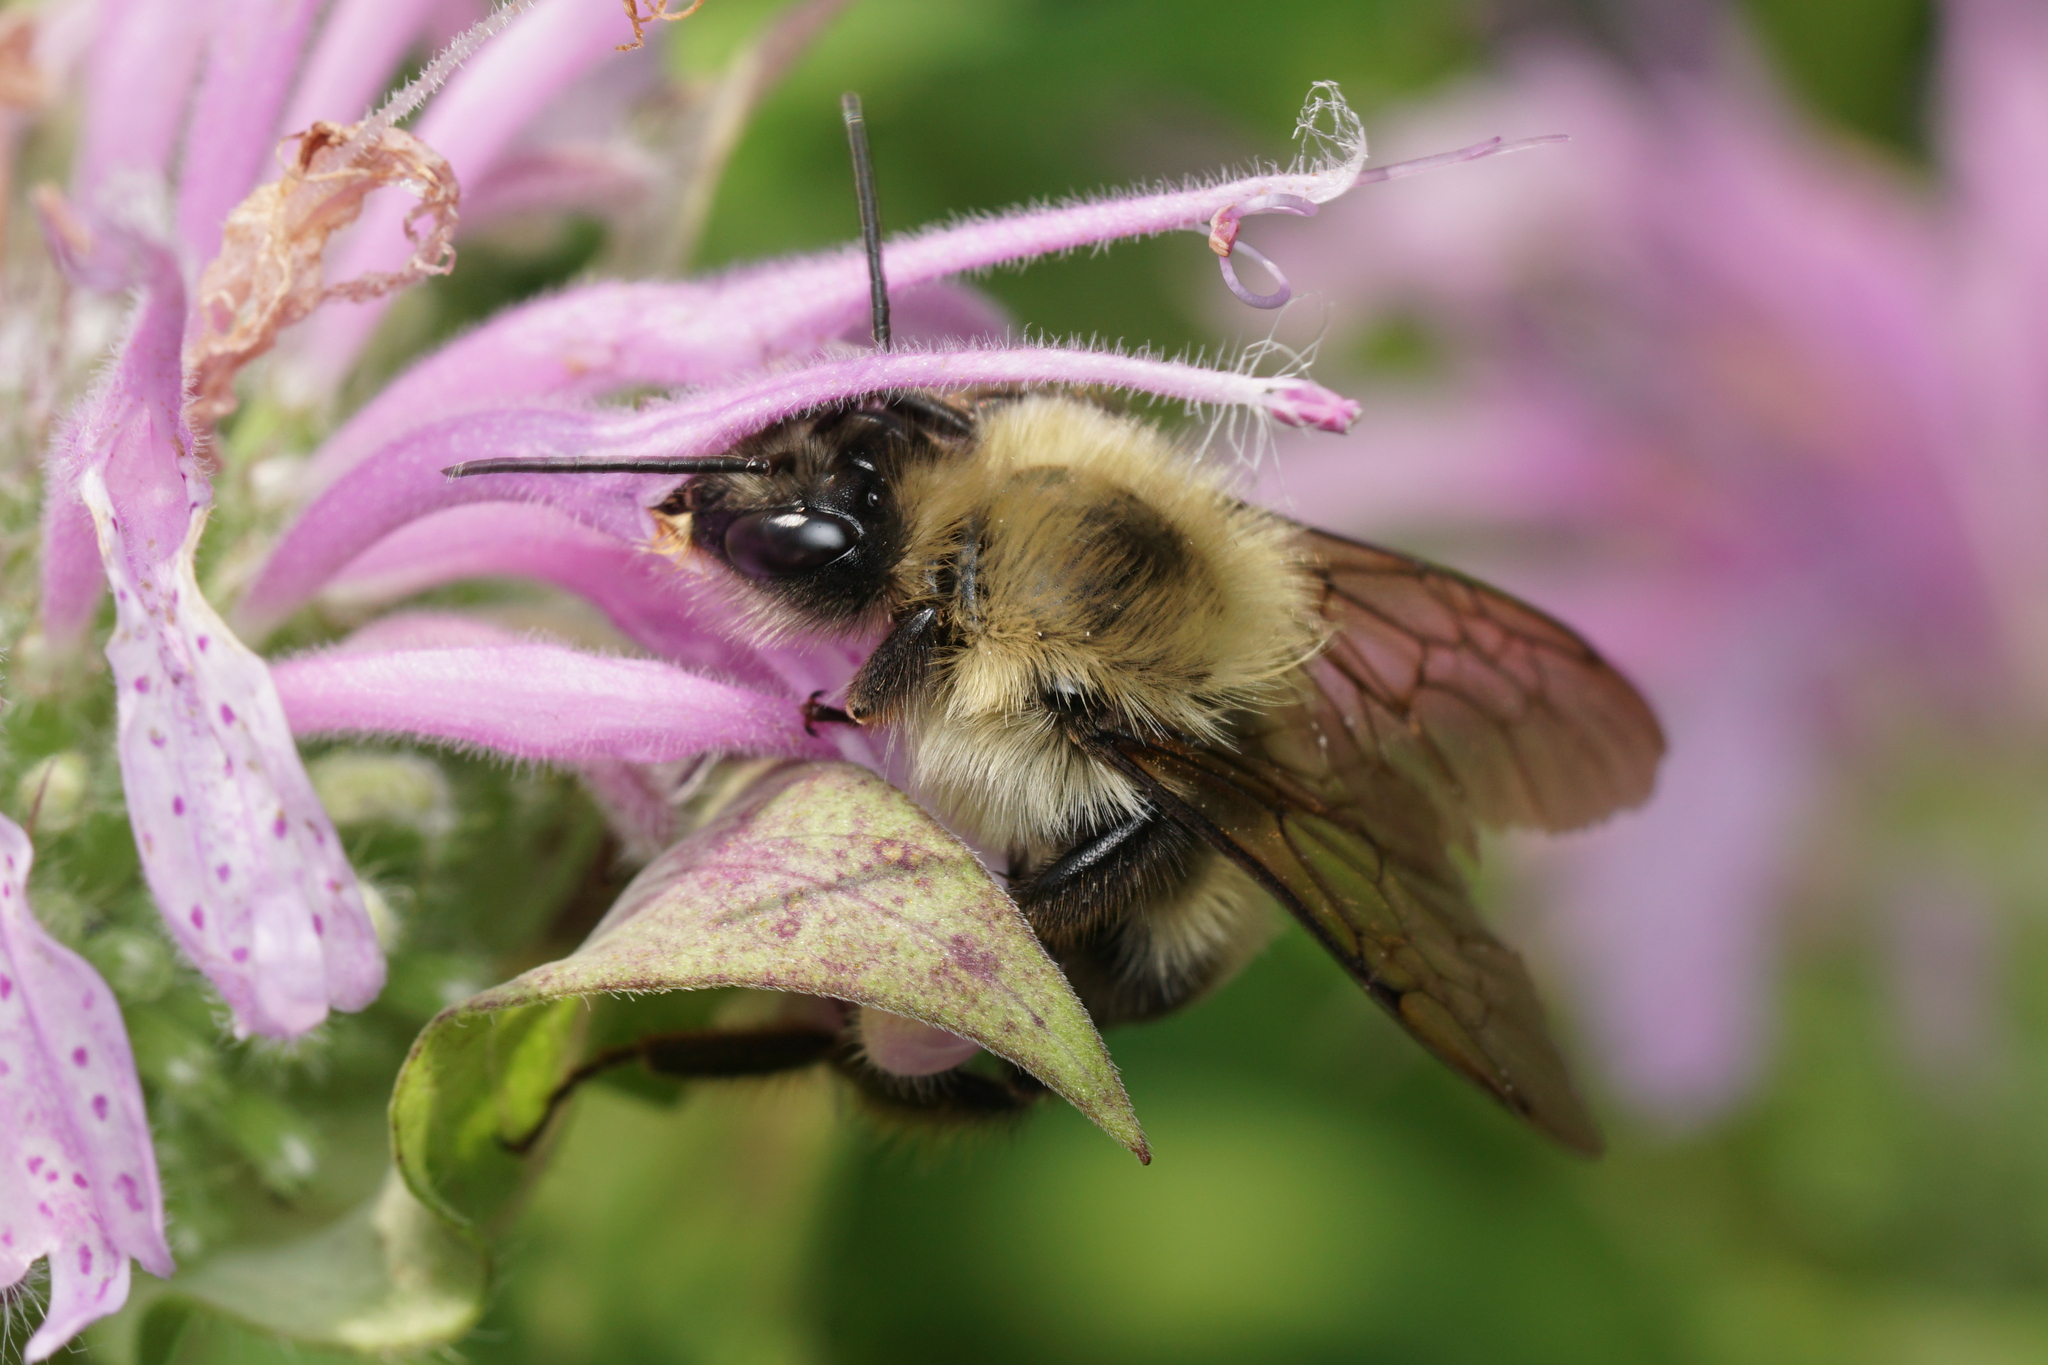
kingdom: Animalia
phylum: Arthropoda
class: Insecta
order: Hymenoptera
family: Apidae
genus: Bombus
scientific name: Bombus bimaculatus
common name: Two-spotted bumble bee
